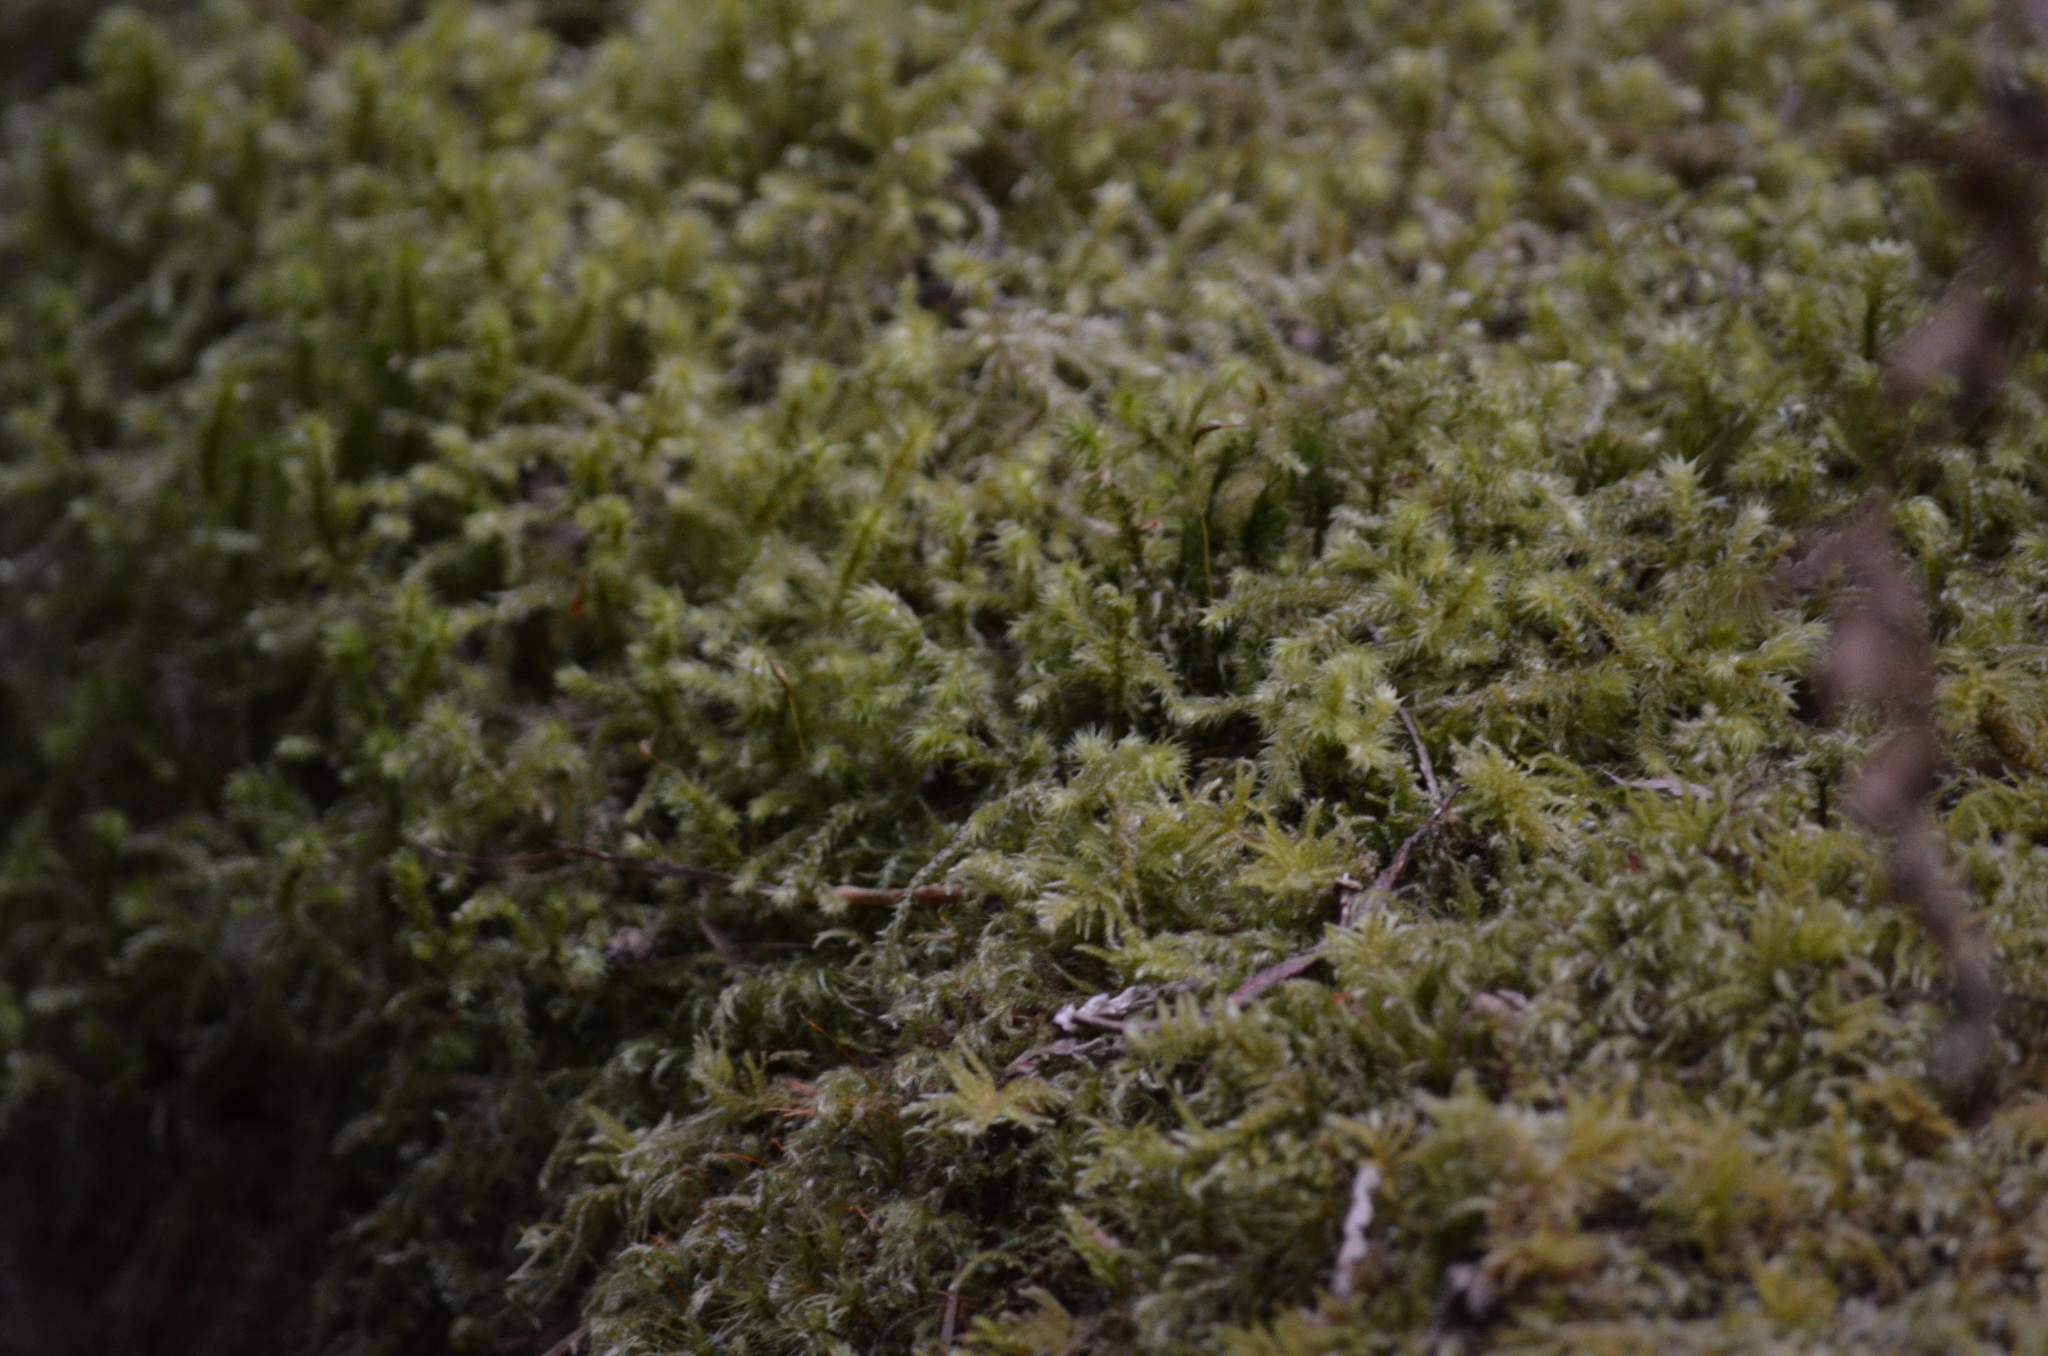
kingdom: Plantae
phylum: Bryophyta
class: Bryopsida
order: Hypnales
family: Hylocomiaceae
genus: Hylocomiadelphus
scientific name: Hylocomiadelphus triquetrus
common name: Rough goose neck moss
